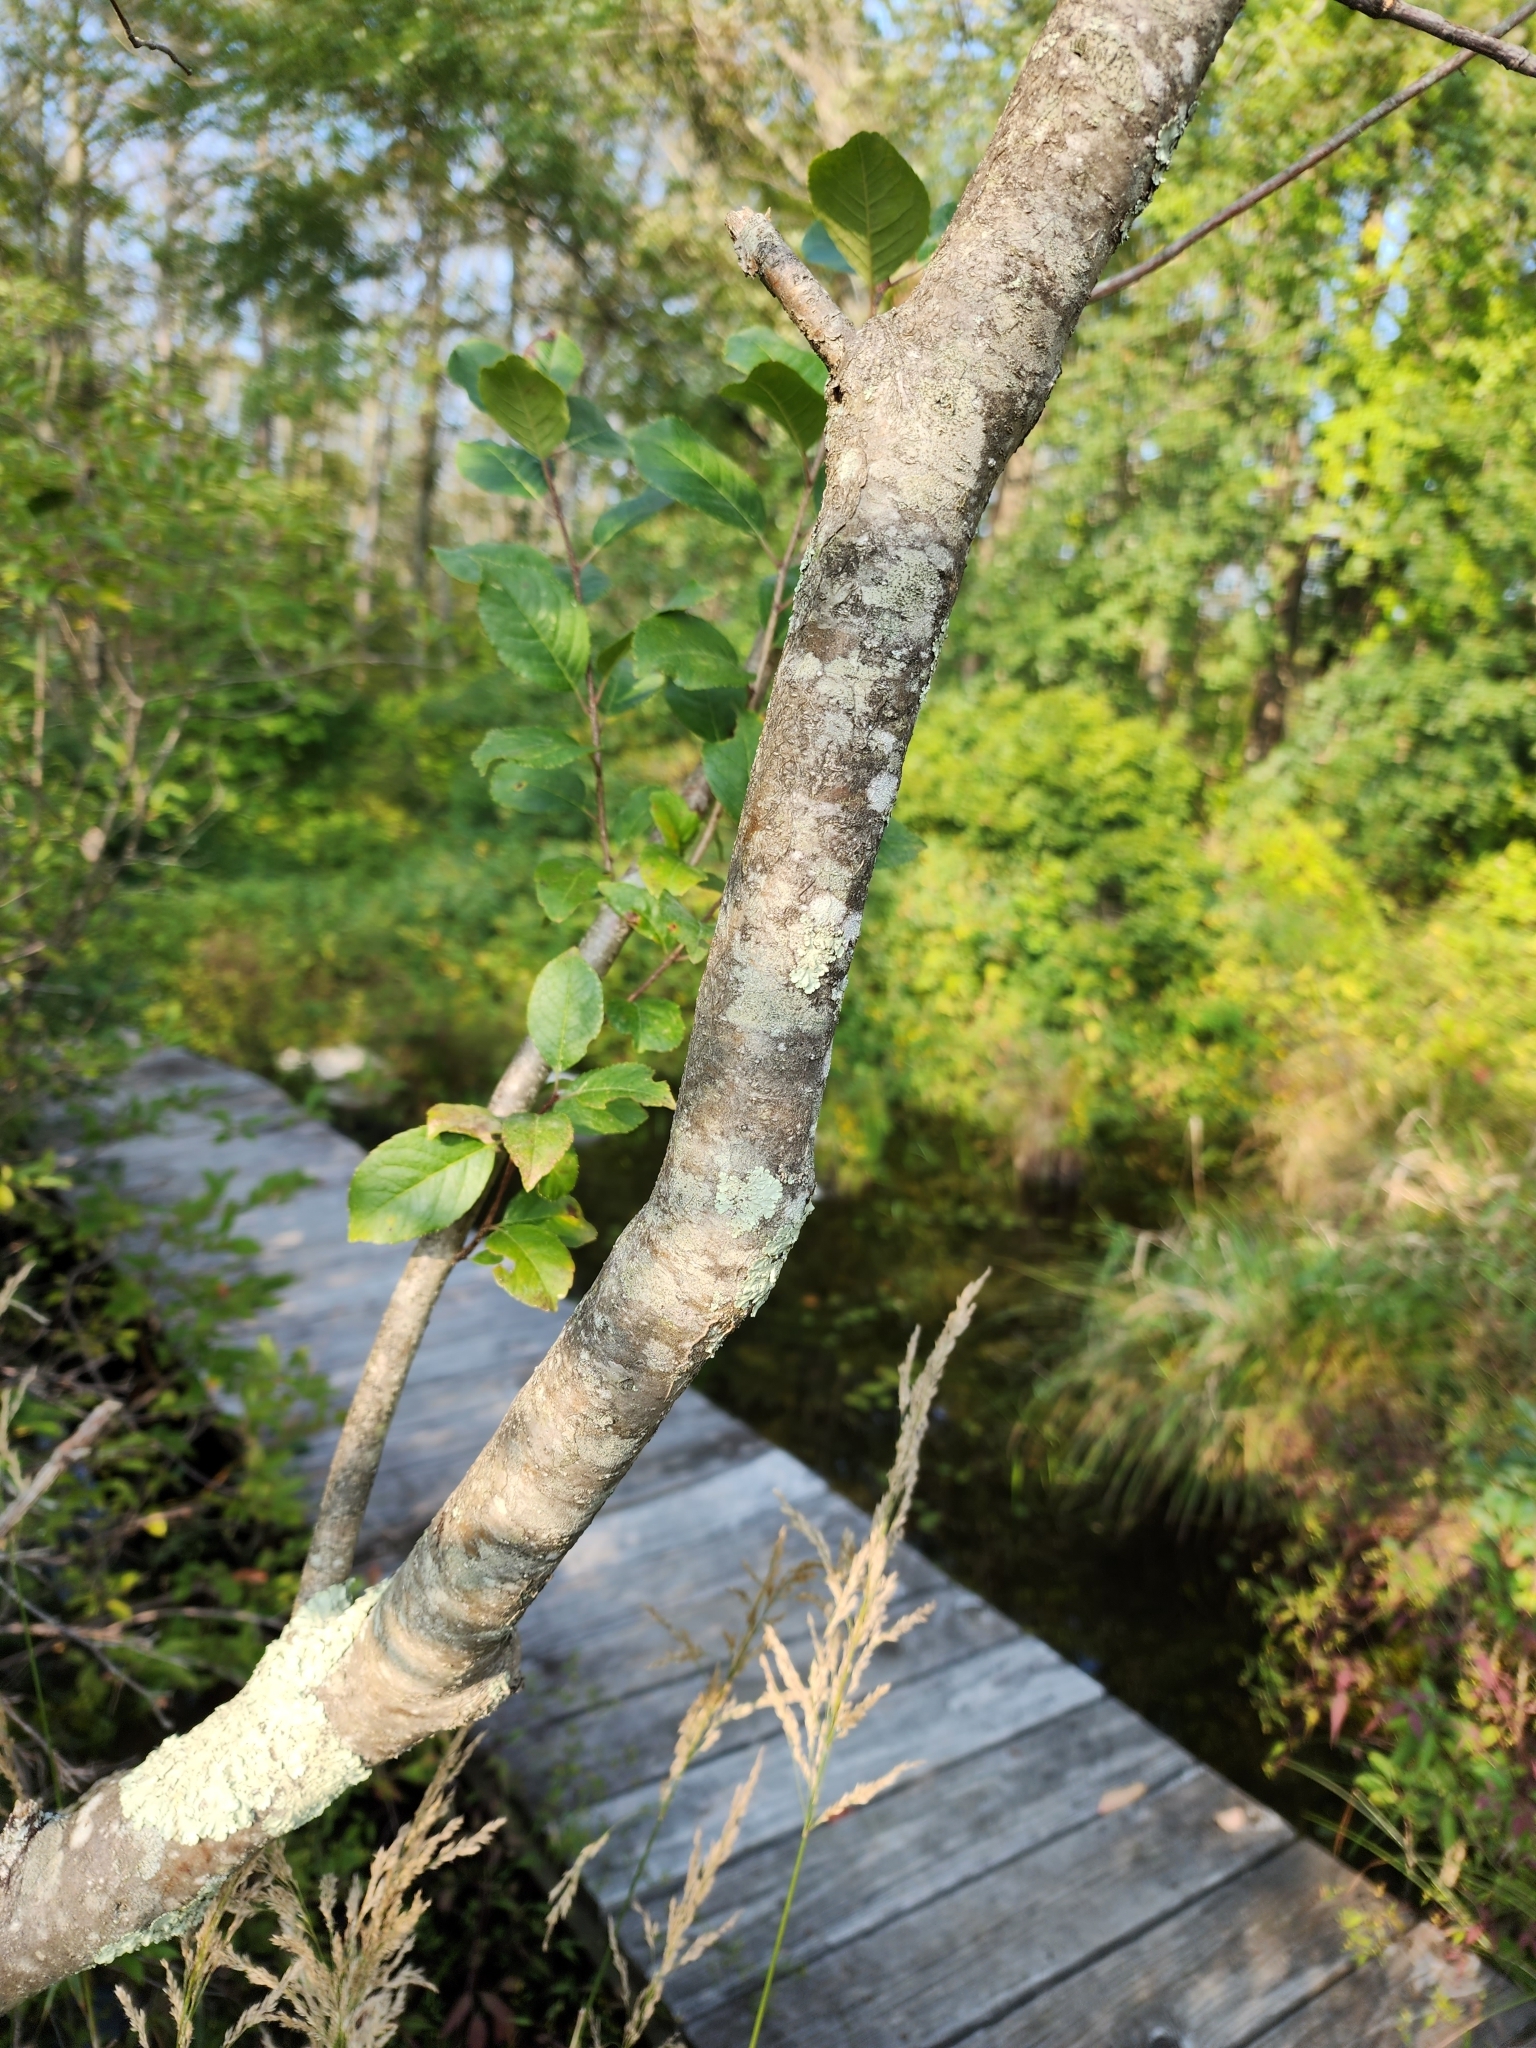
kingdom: Plantae
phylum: Tracheophyta
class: Magnoliopsida
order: Aquifoliales
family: Aquifoliaceae
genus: Ilex
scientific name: Ilex verticillata
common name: Virginia winterberry
